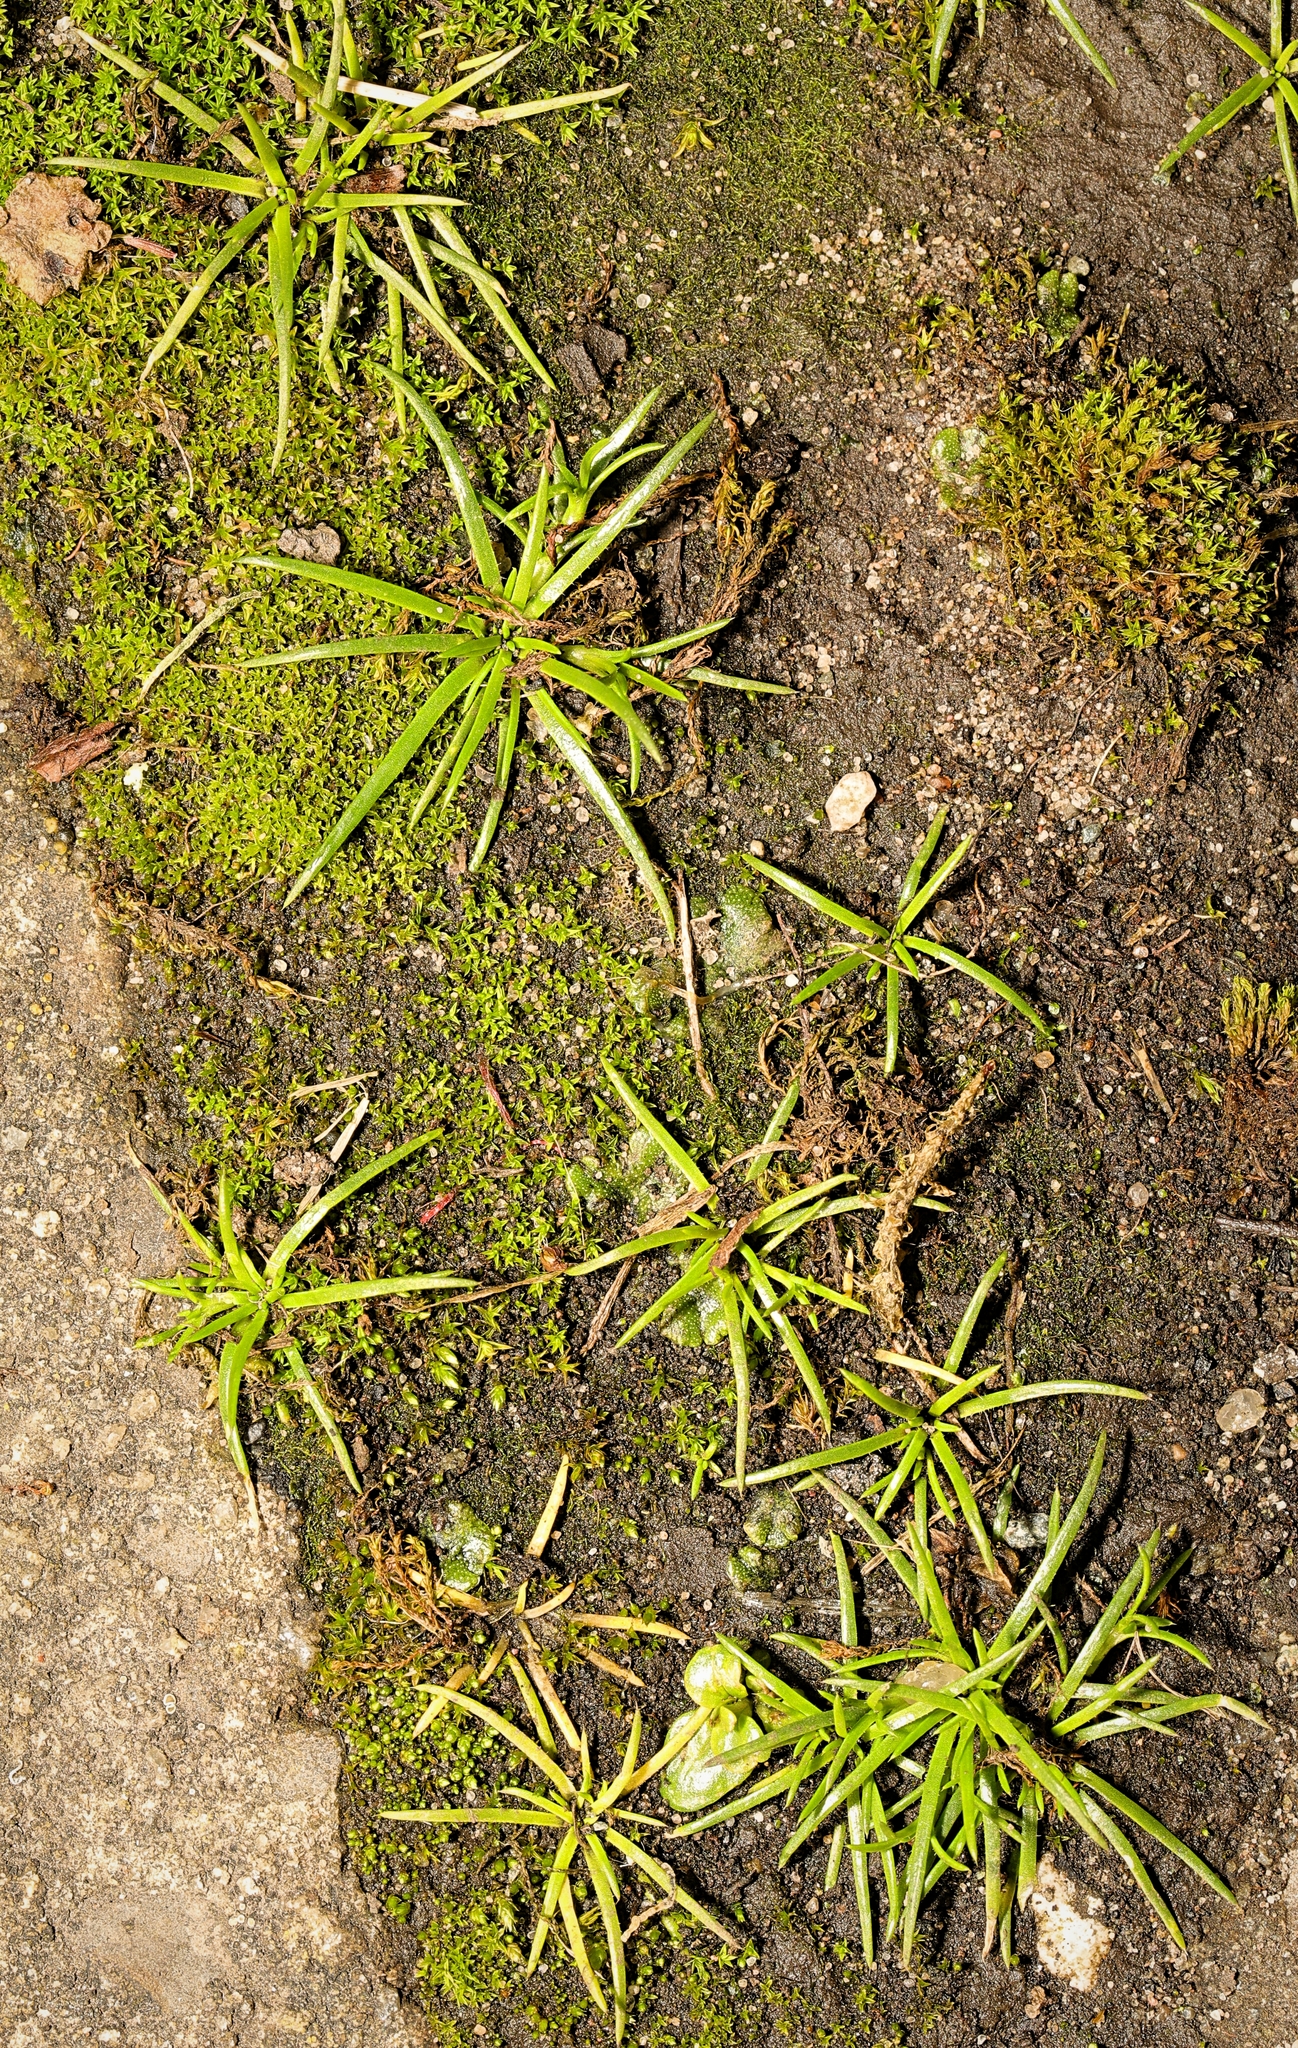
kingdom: Plantae
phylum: Tracheophyta
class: Magnoliopsida
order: Caryophyllales
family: Caryophyllaceae
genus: Sagina
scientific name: Sagina procumbens
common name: Procumbent pearlwort
